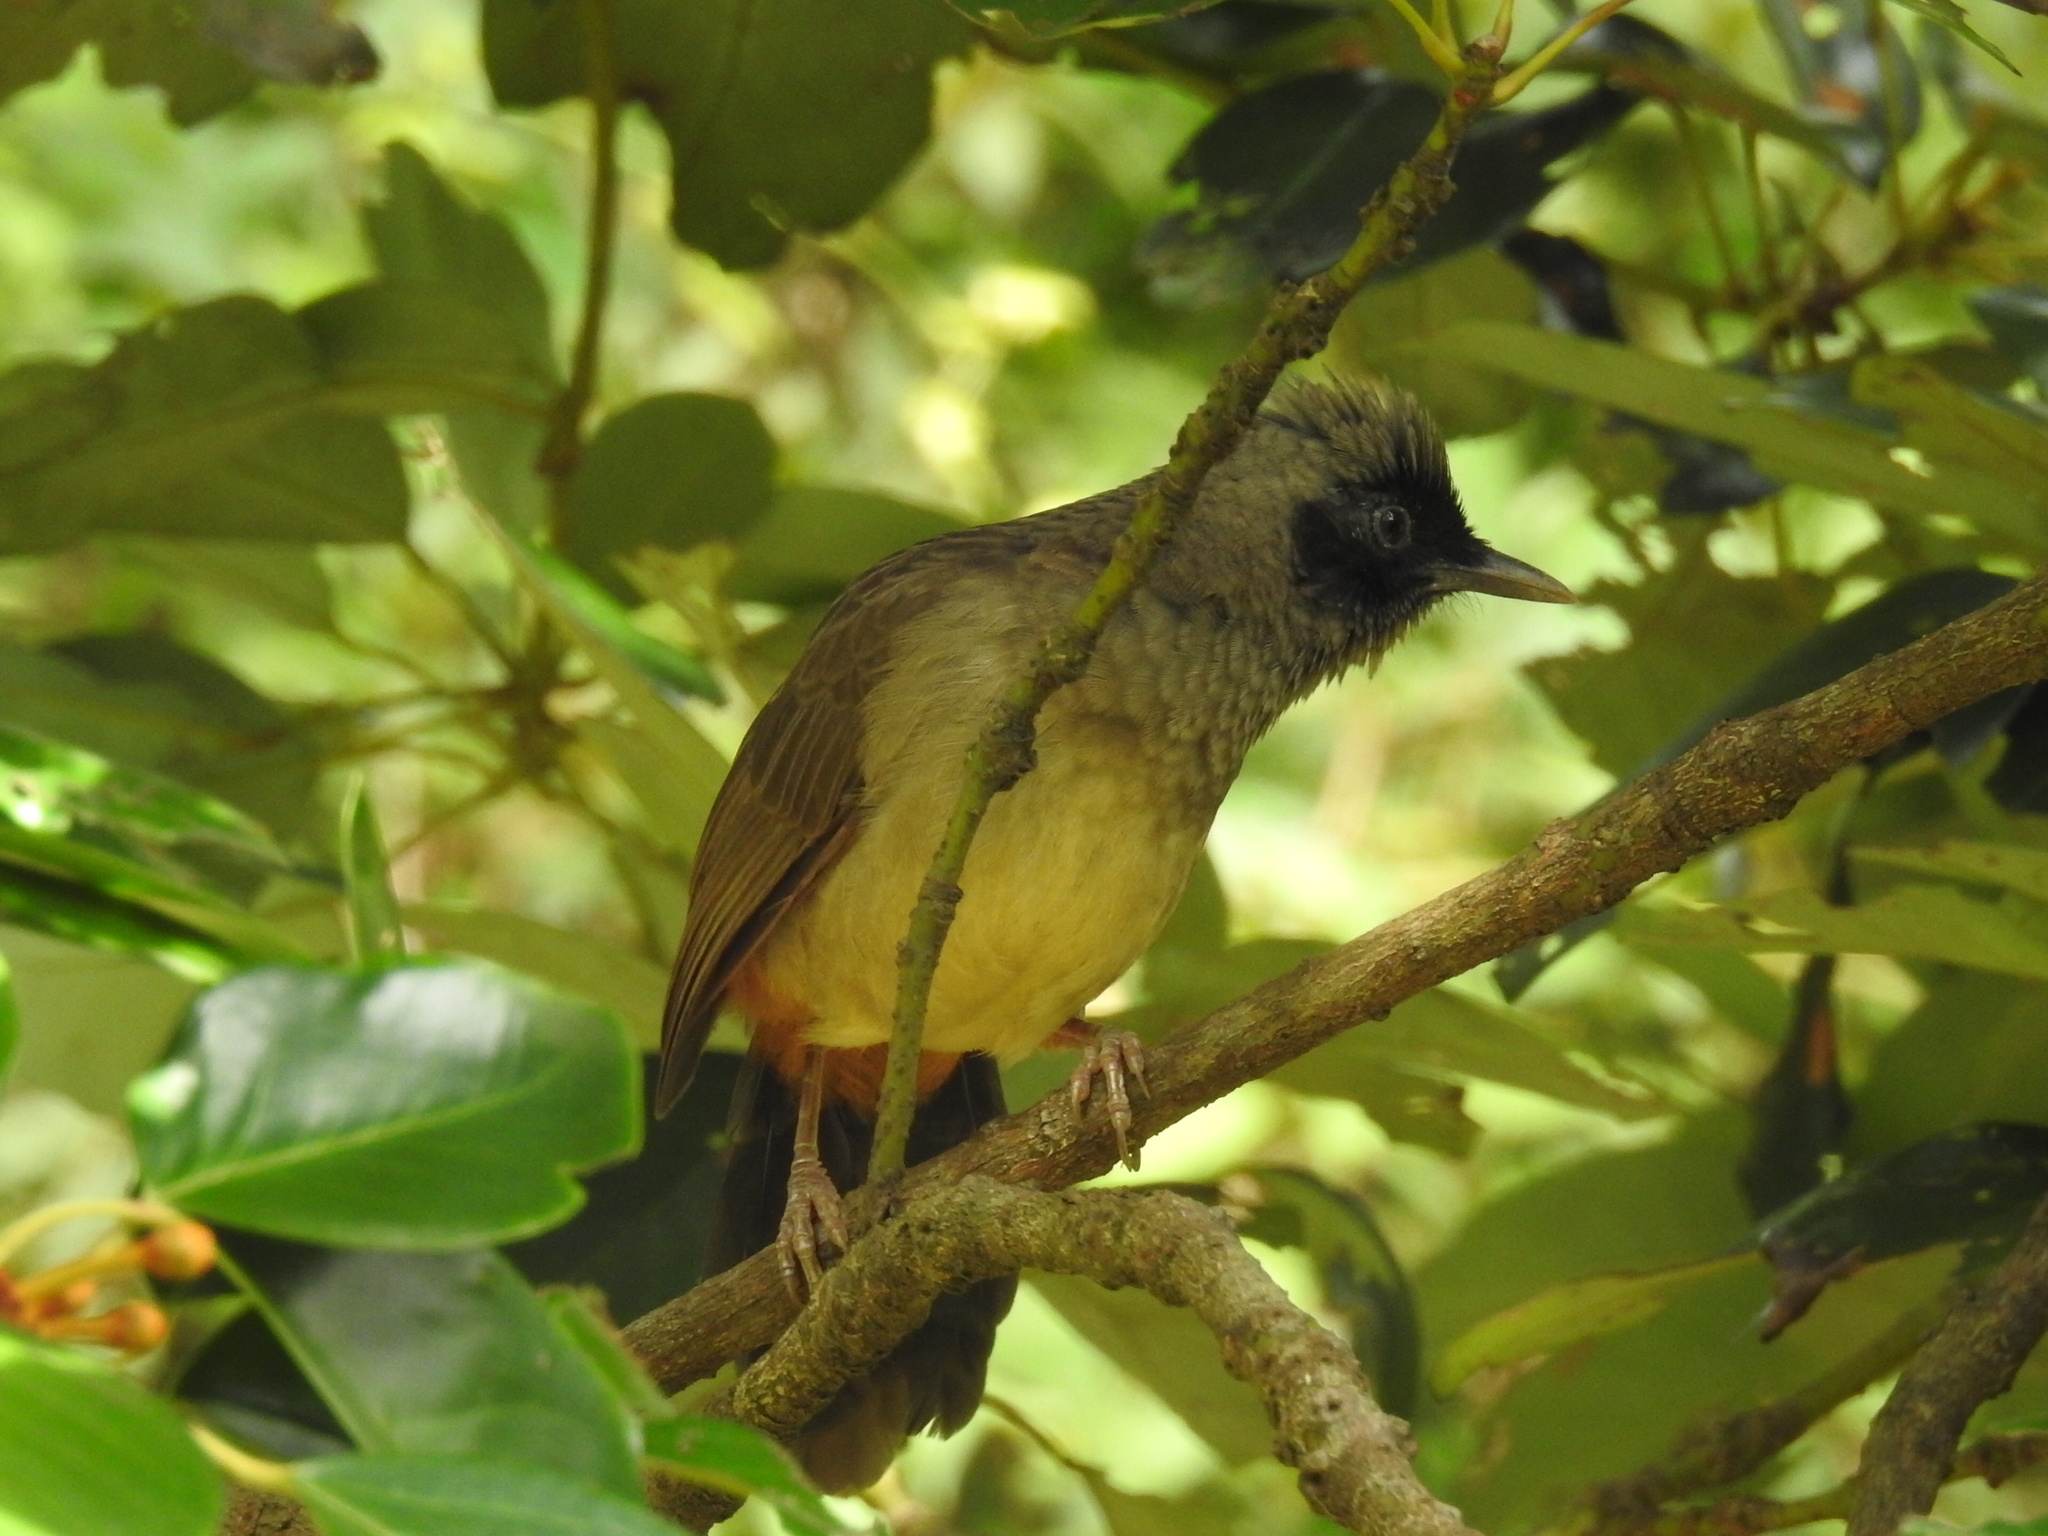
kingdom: Animalia
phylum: Chordata
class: Aves
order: Passeriformes
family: Leiothrichidae
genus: Garrulax
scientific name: Garrulax perspicillatus
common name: Masked laughingthrush
